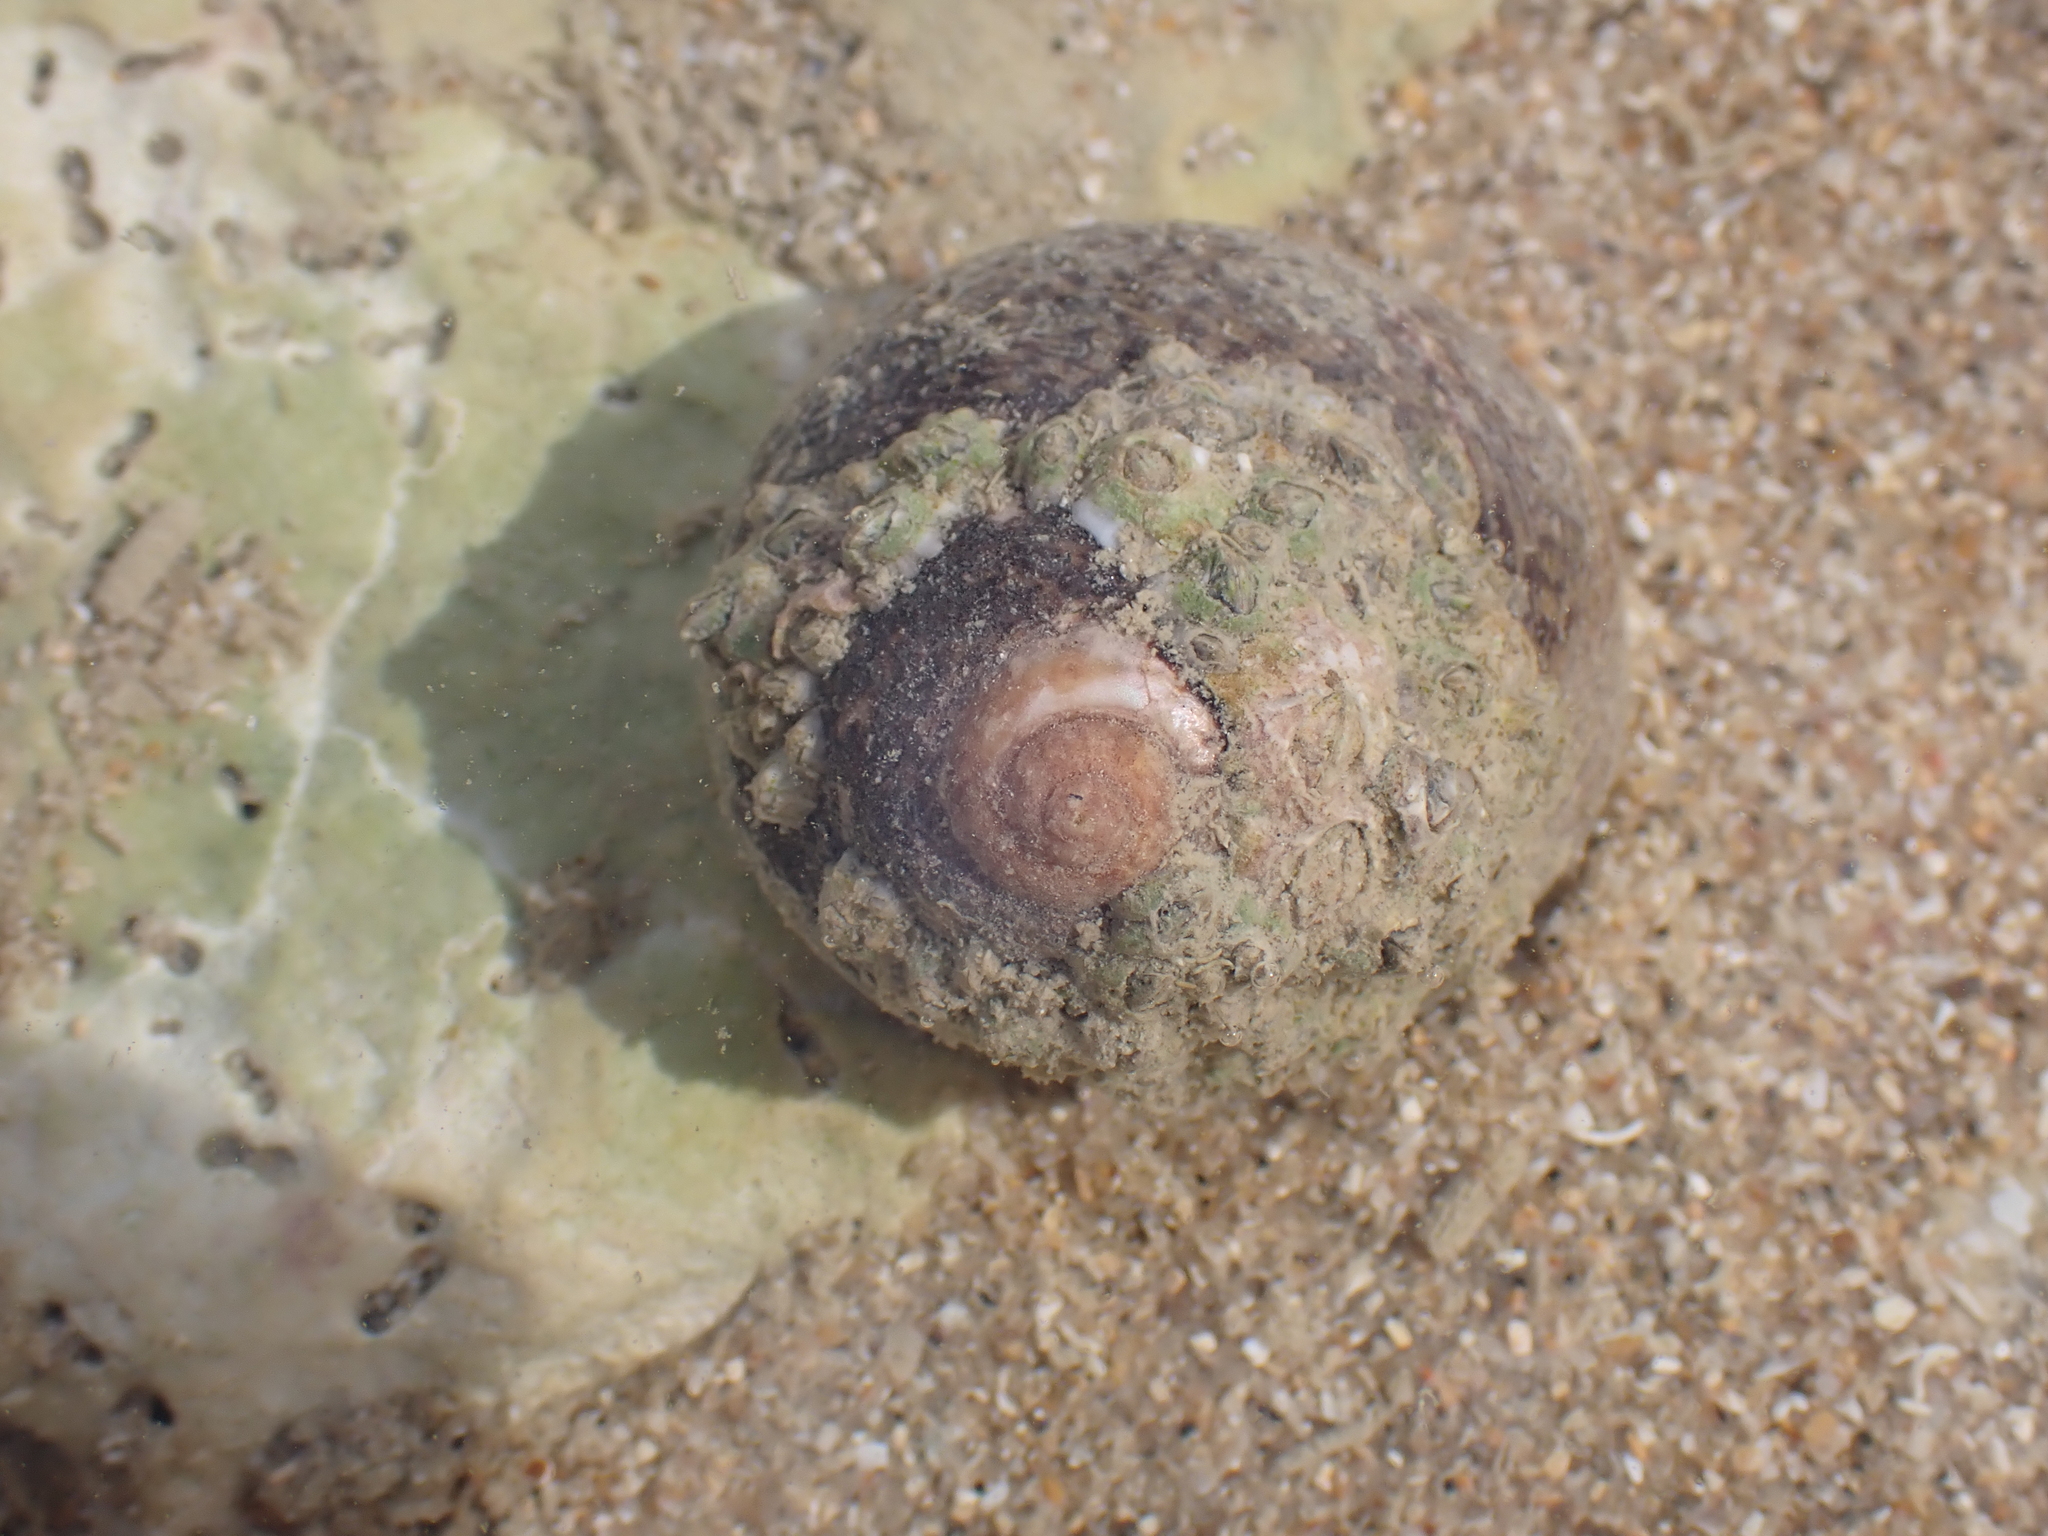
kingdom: Animalia
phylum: Mollusca
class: Gastropoda
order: Trochida
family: Trochidae
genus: Phorcus
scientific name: Phorcus lineatus
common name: Toothed top shell
